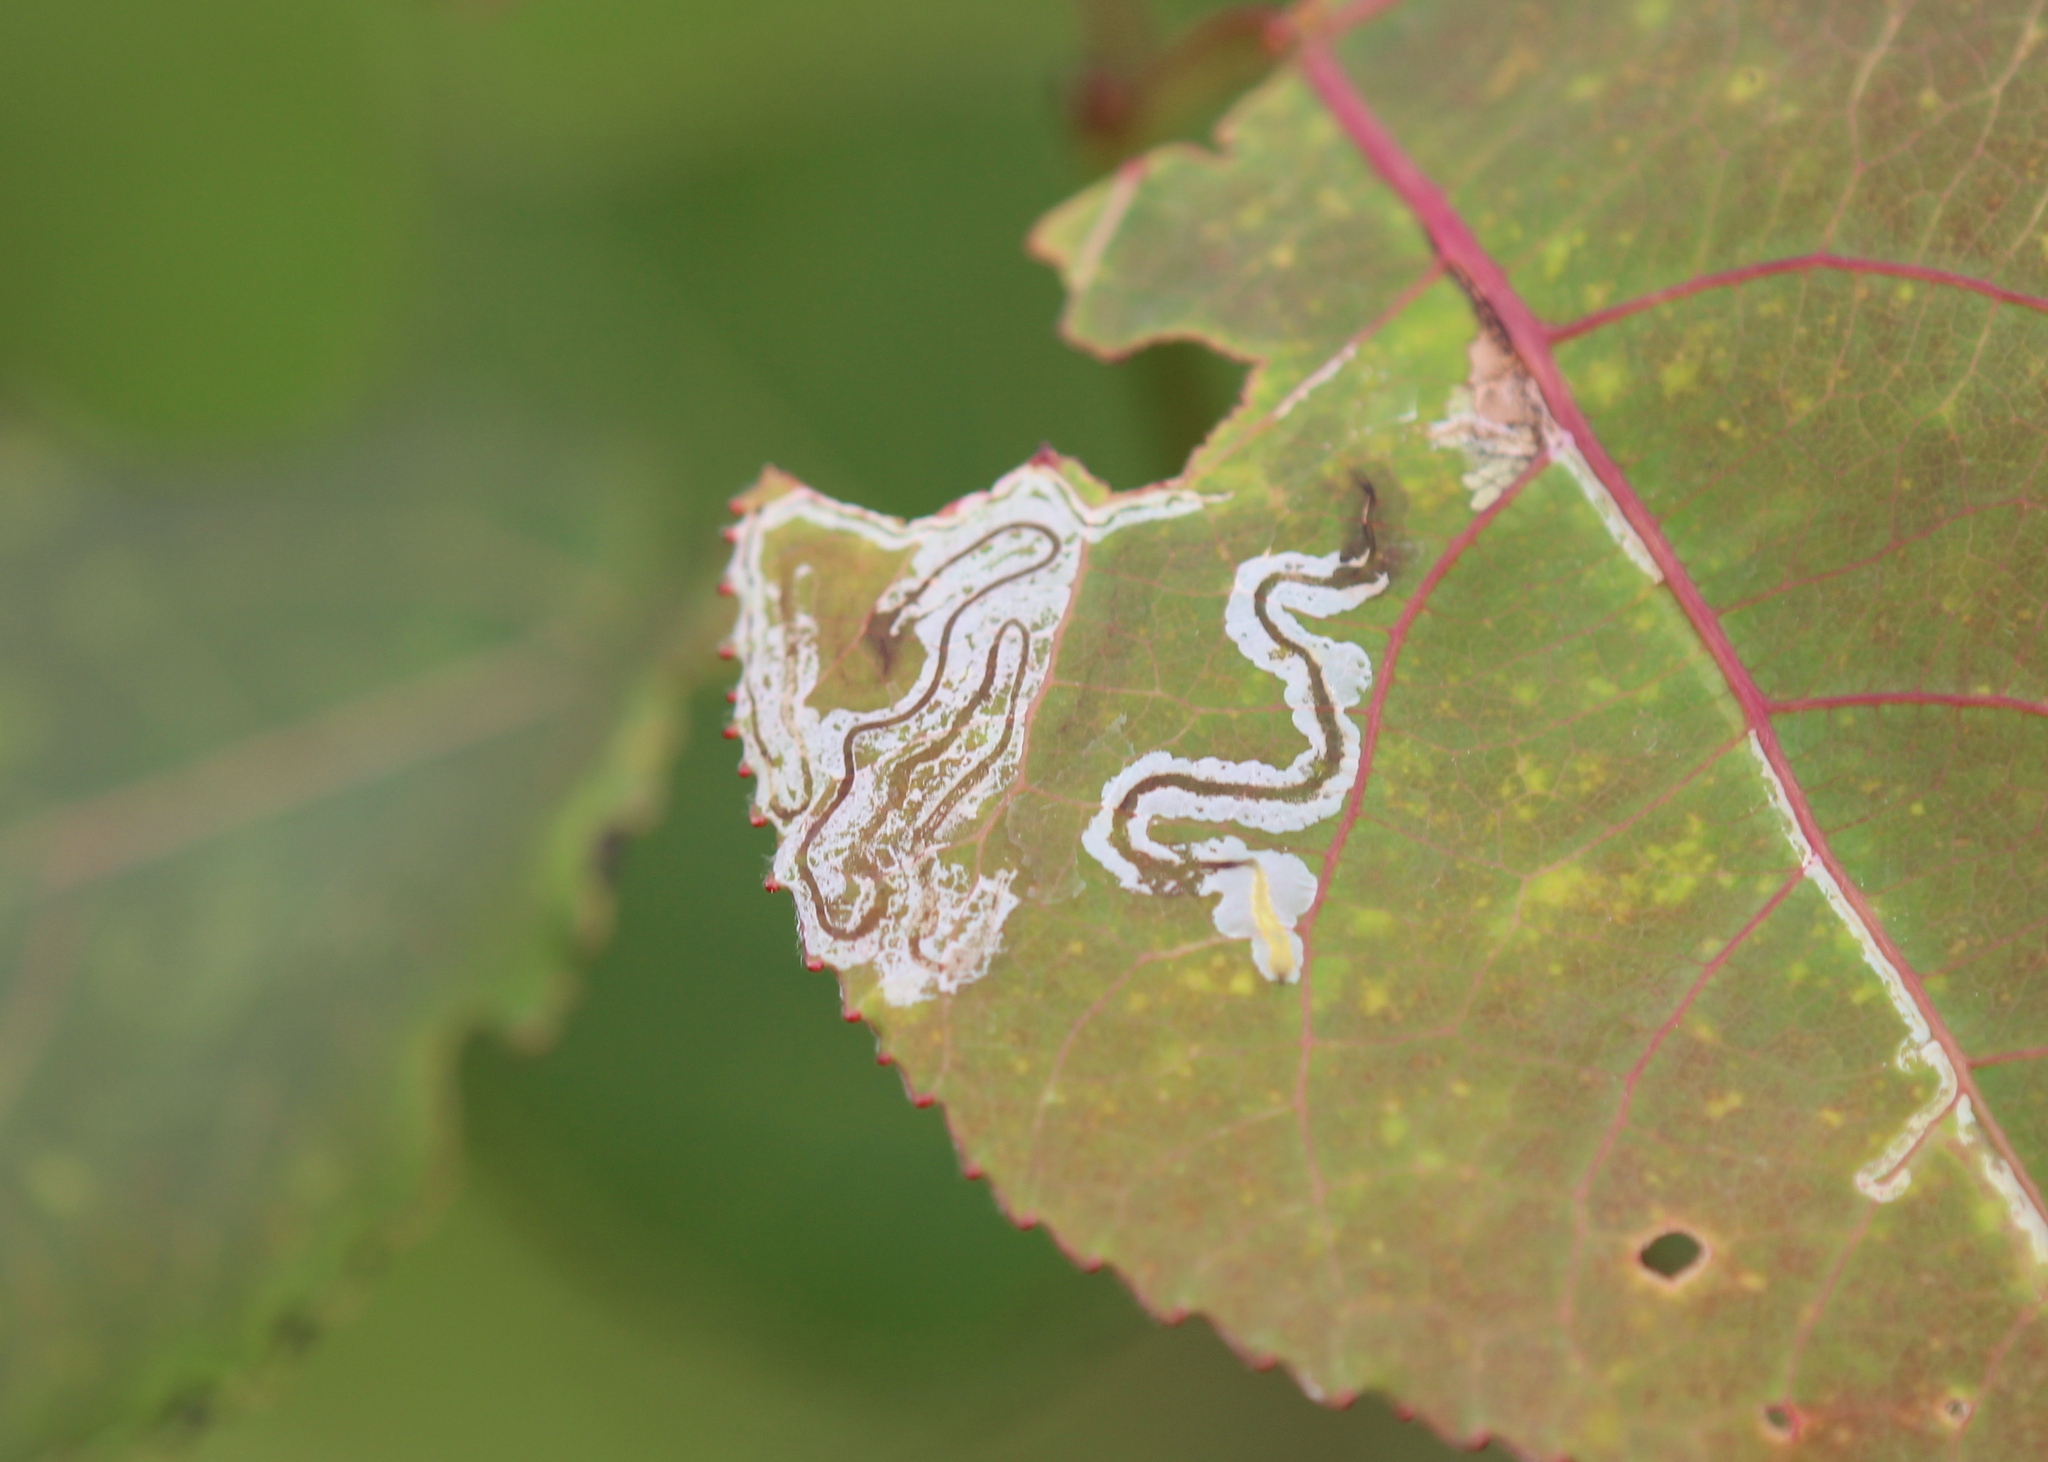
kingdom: Animalia
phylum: Arthropoda
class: Insecta
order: Lepidoptera
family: Gracillariidae
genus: Phyllocnistis
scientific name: Phyllocnistis populiella
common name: Aspen serpentine leafminer moth
